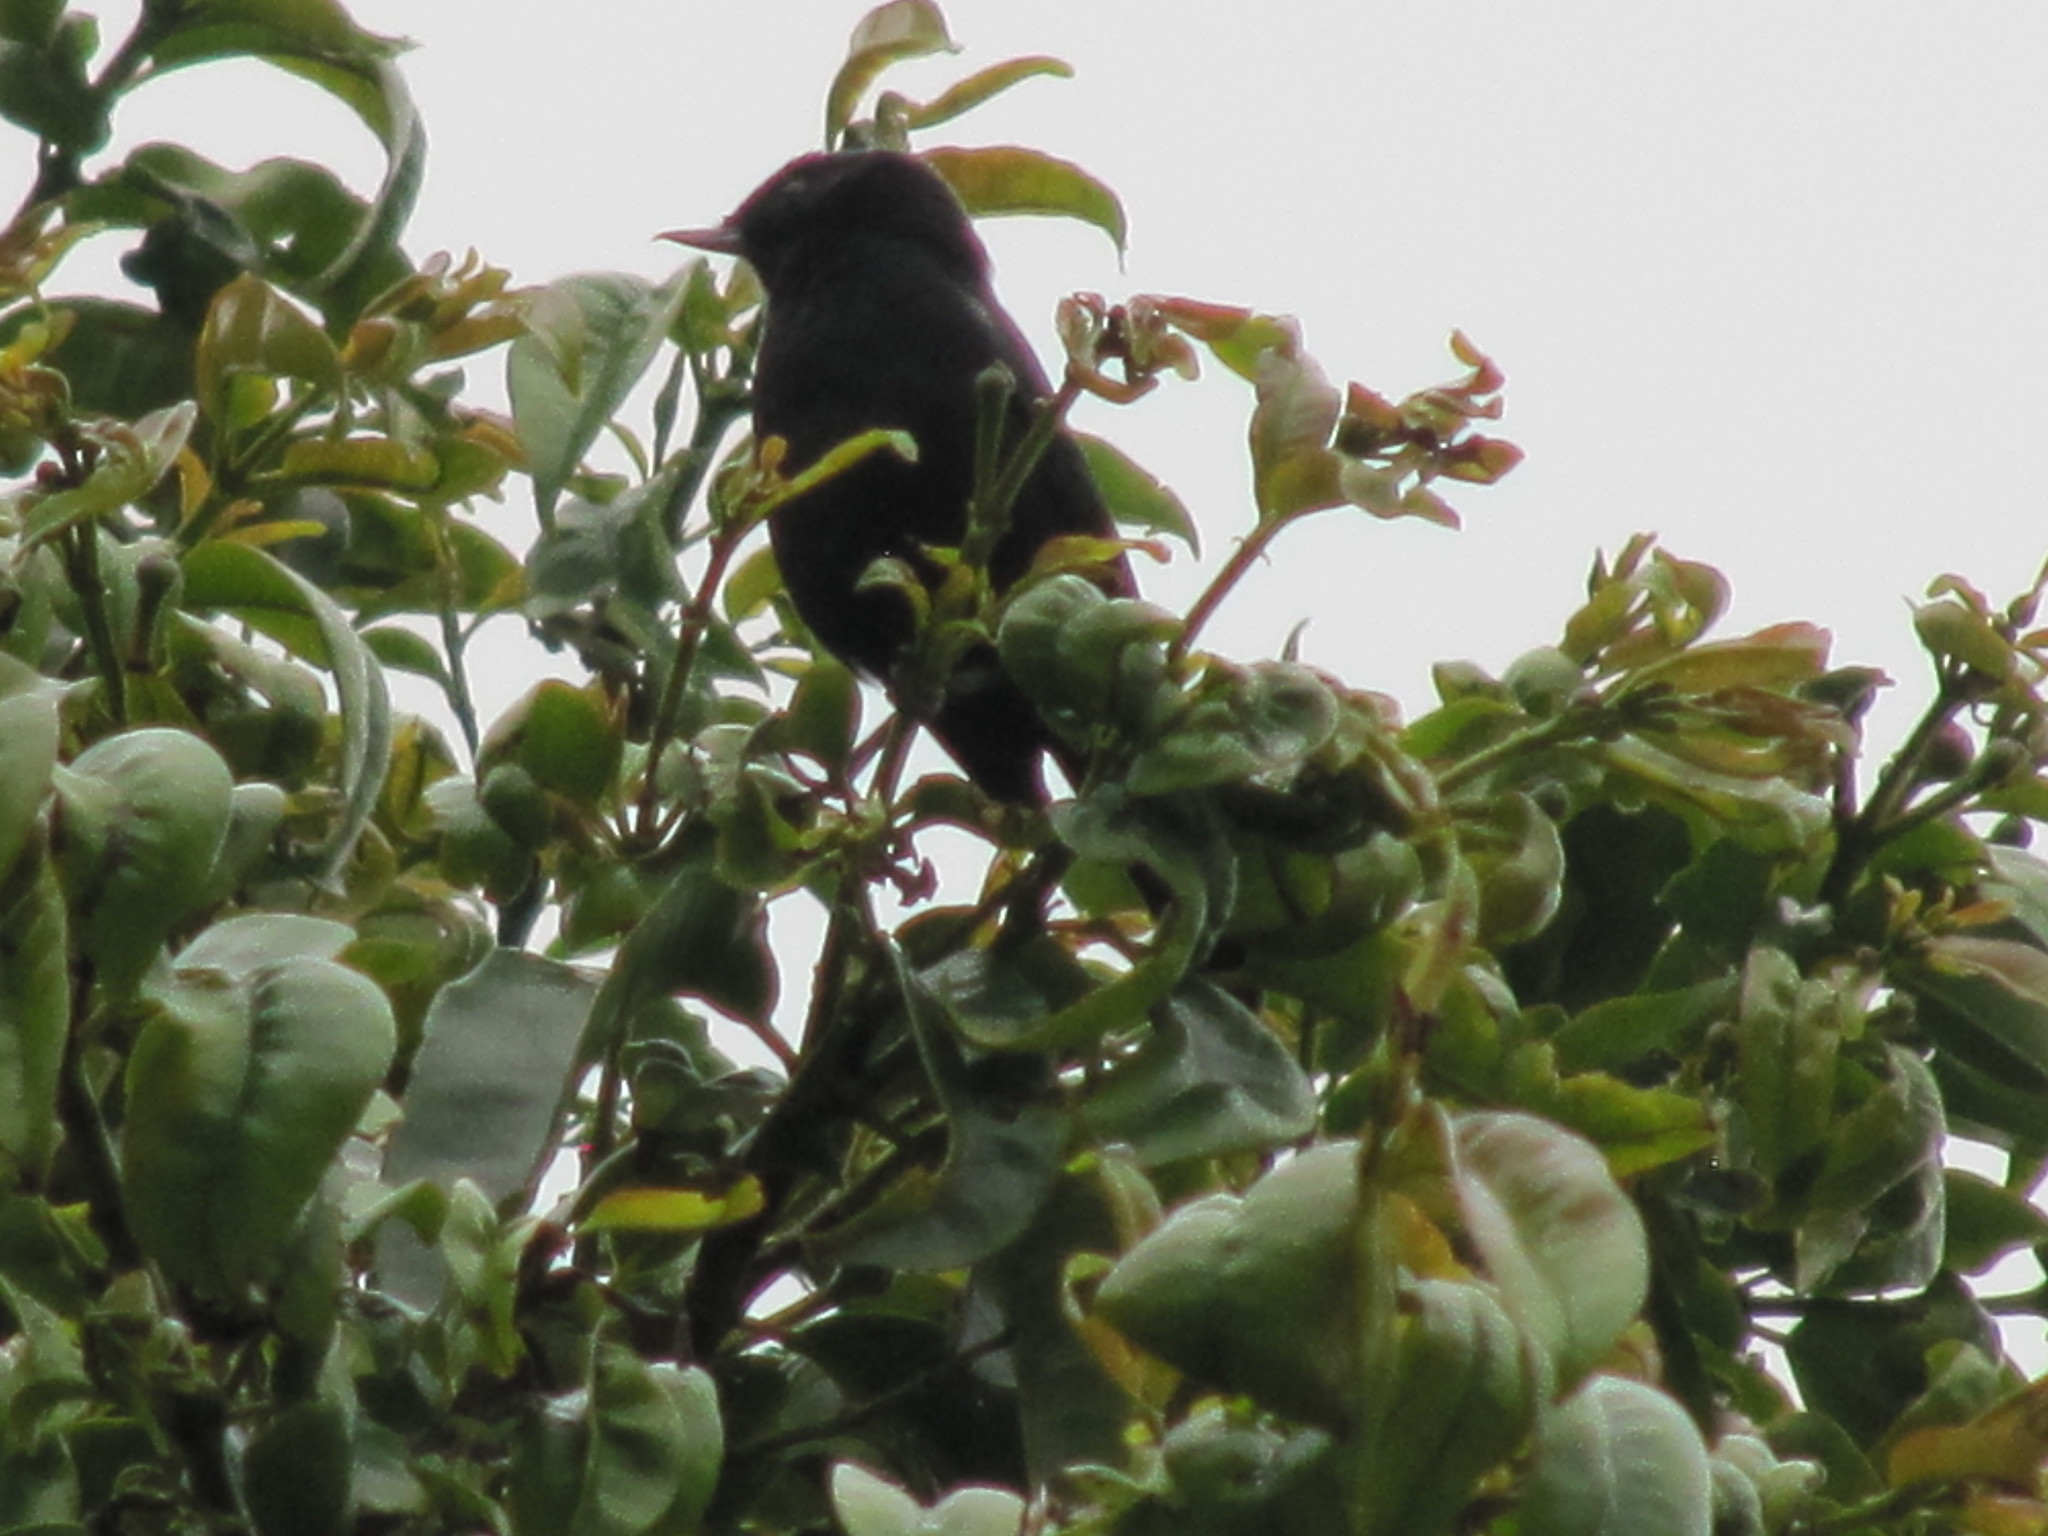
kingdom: Animalia
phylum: Chordata
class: Aves
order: Passeriformes
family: Thraupidae
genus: Diglossa
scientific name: Diglossa humeralis
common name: Black flowerpiercer
